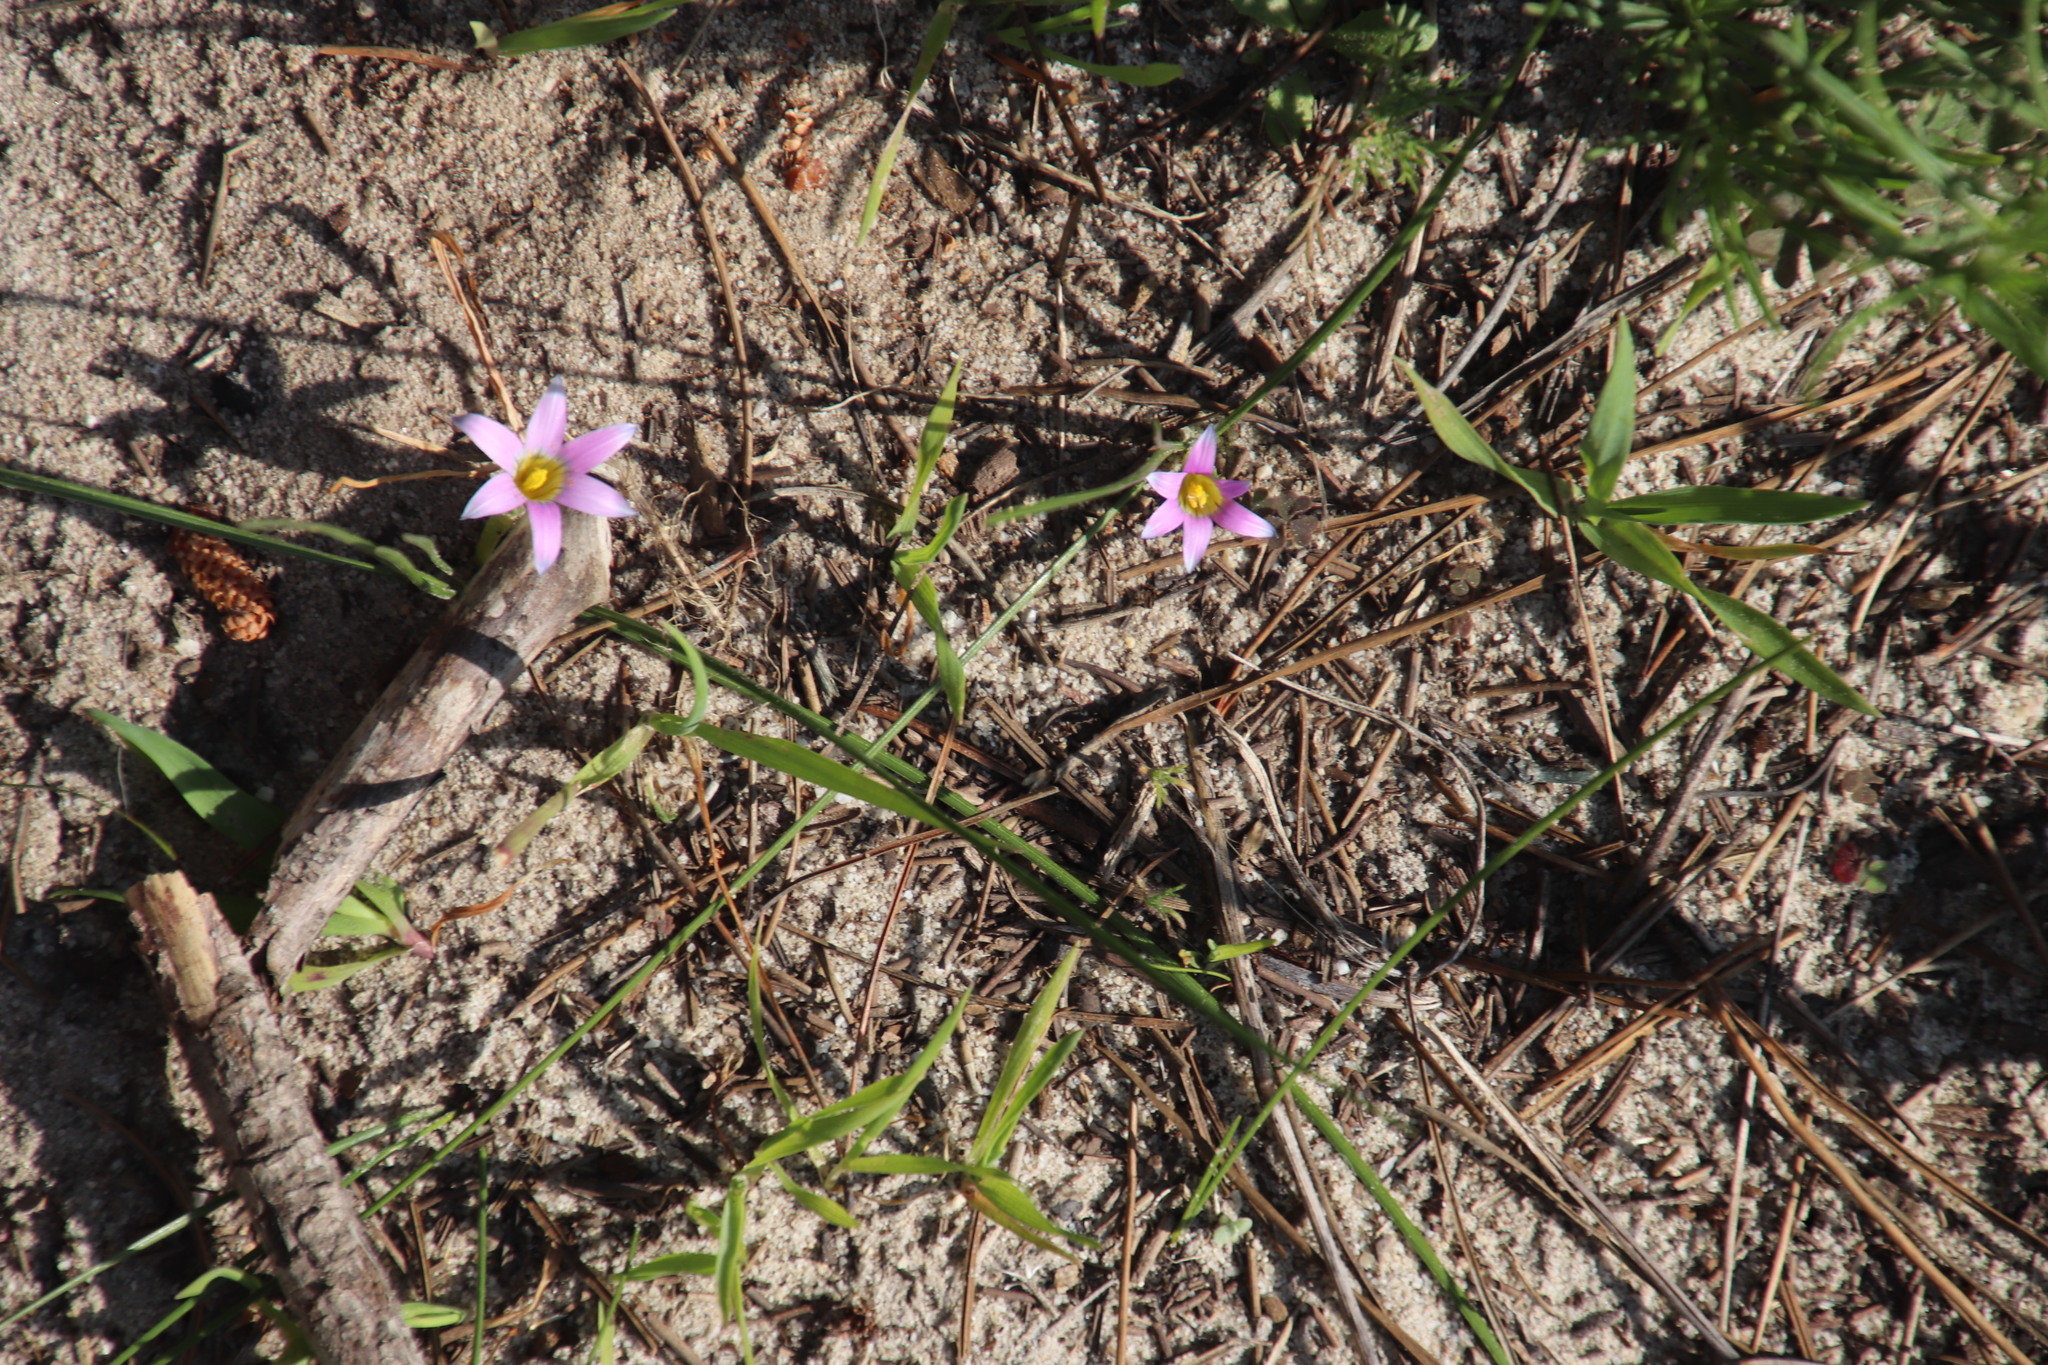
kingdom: Plantae
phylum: Tracheophyta
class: Liliopsida
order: Asparagales
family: Iridaceae
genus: Romulea
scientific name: Romulea rosea
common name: Oniongrass
